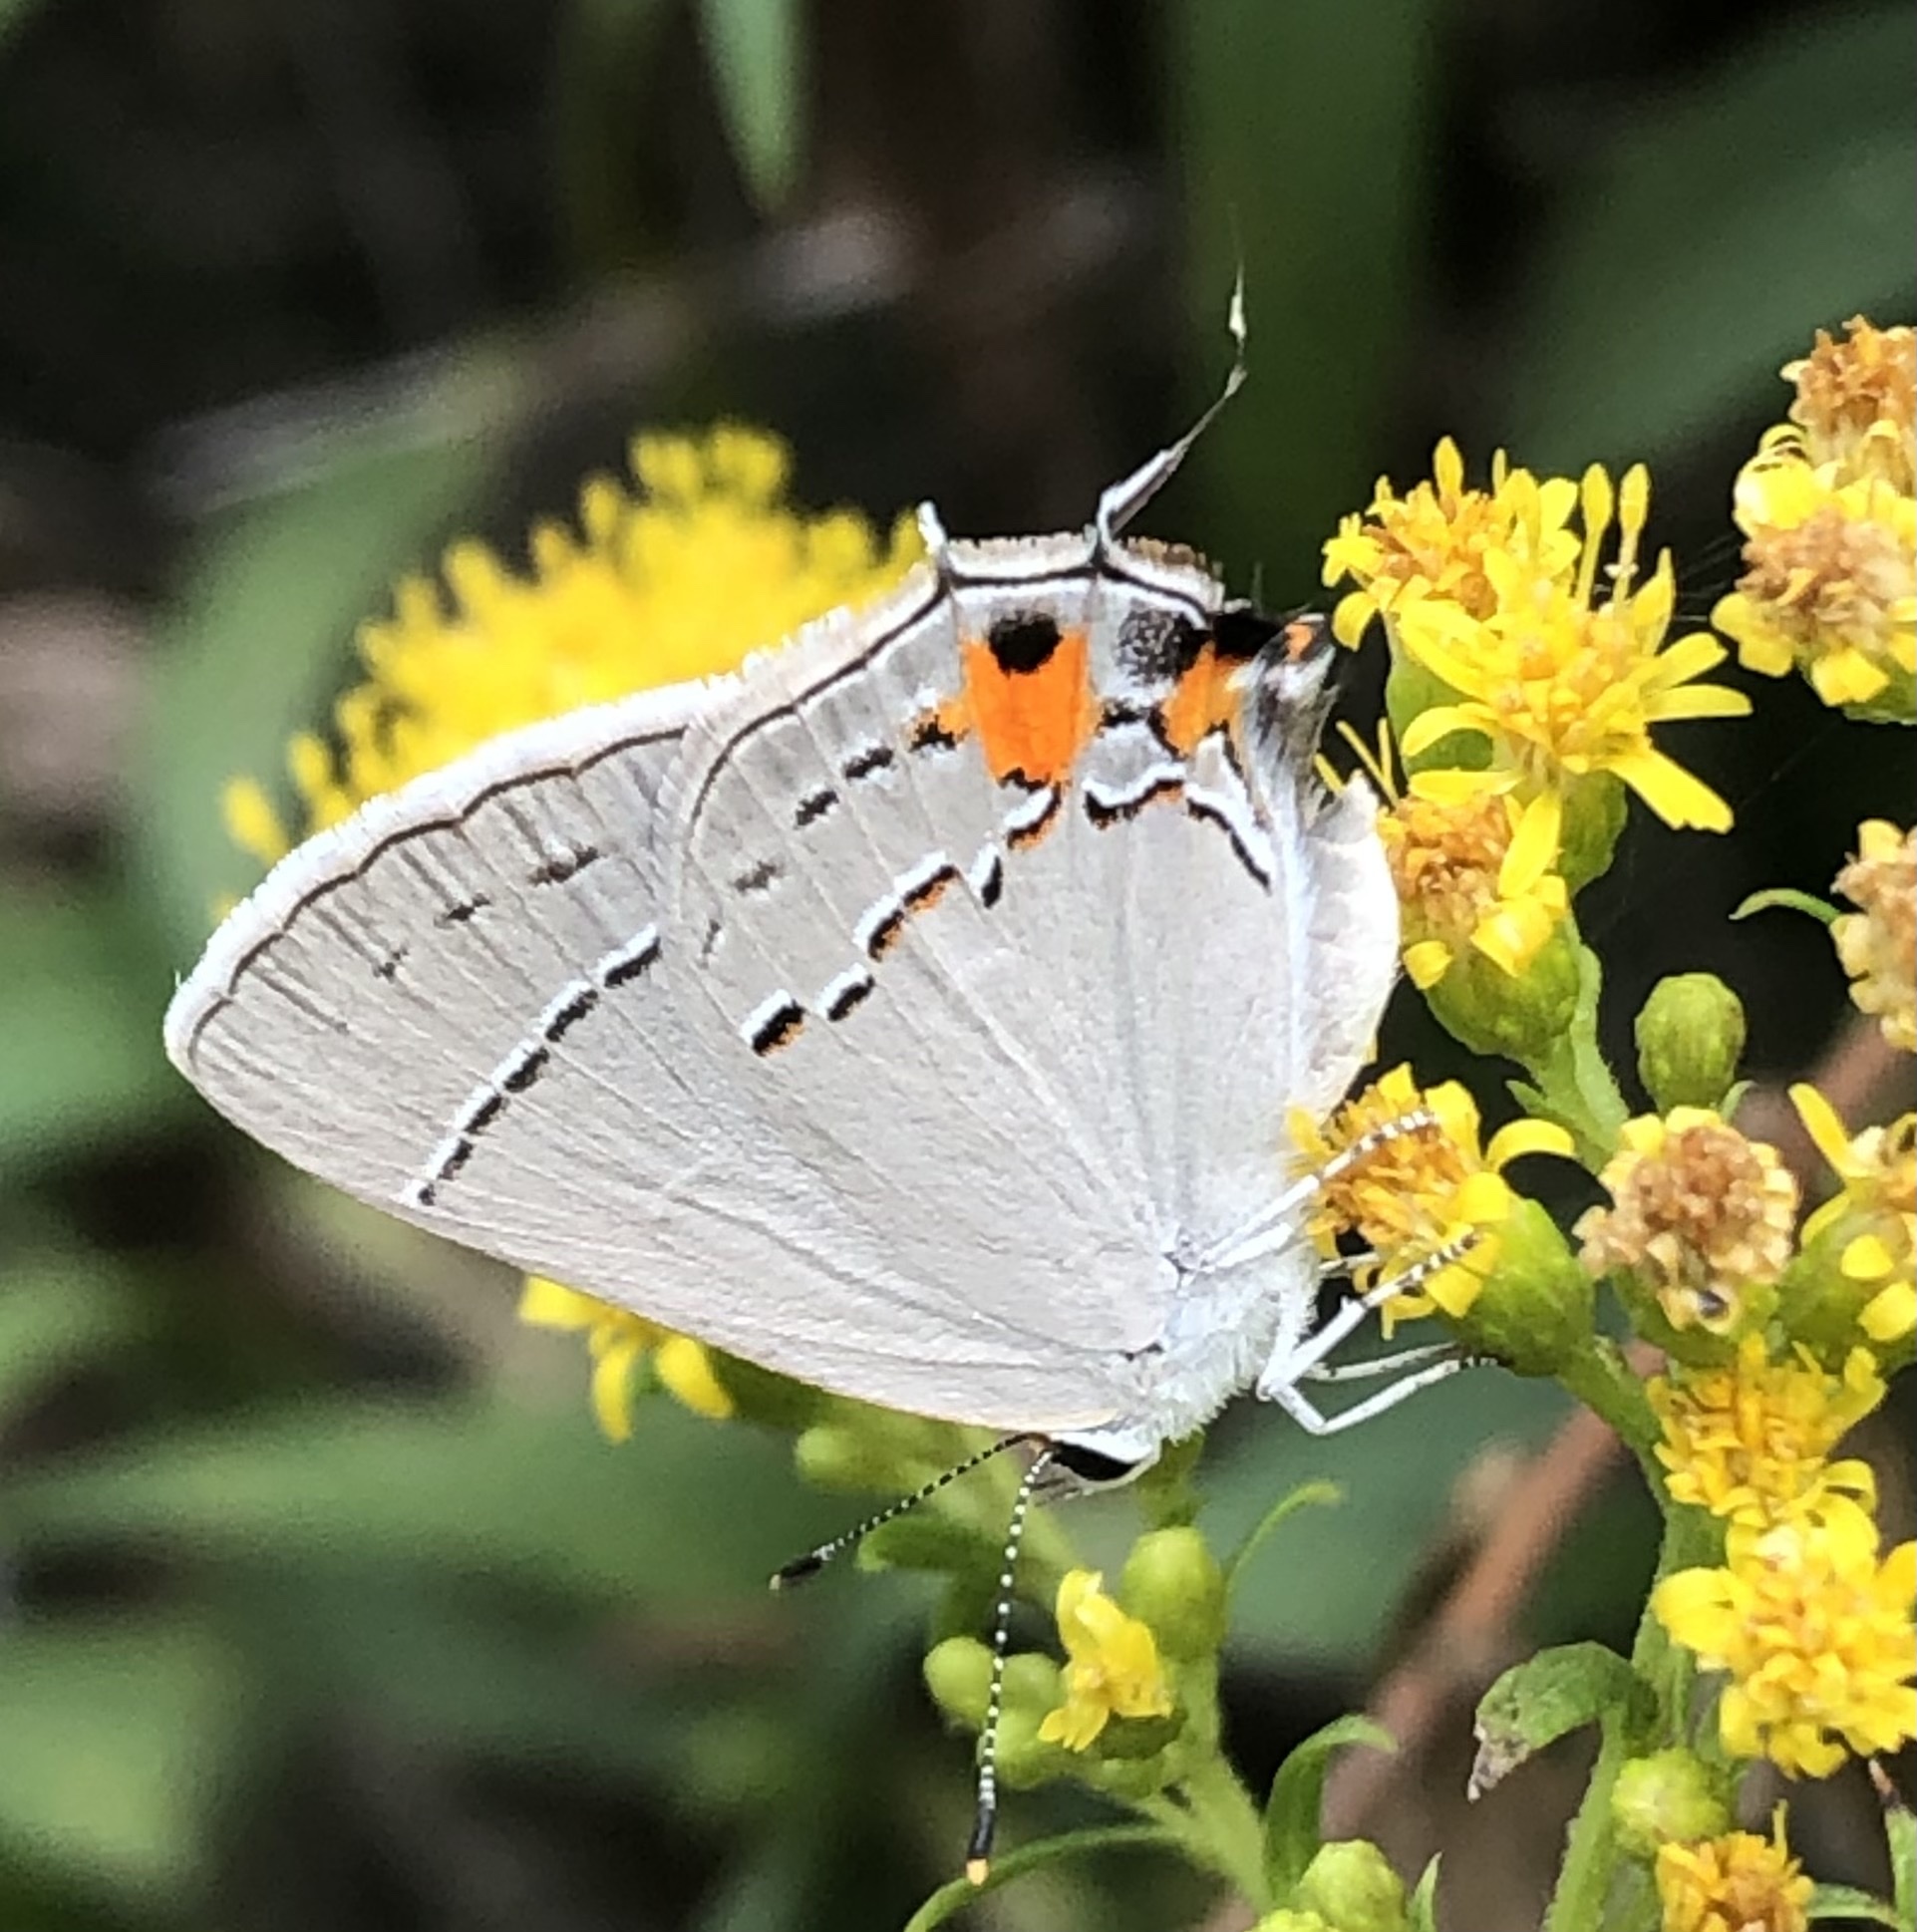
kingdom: Animalia
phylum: Arthropoda
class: Insecta
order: Lepidoptera
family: Lycaenidae
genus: Strymon
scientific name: Strymon melinus
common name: Gray hairstreak
